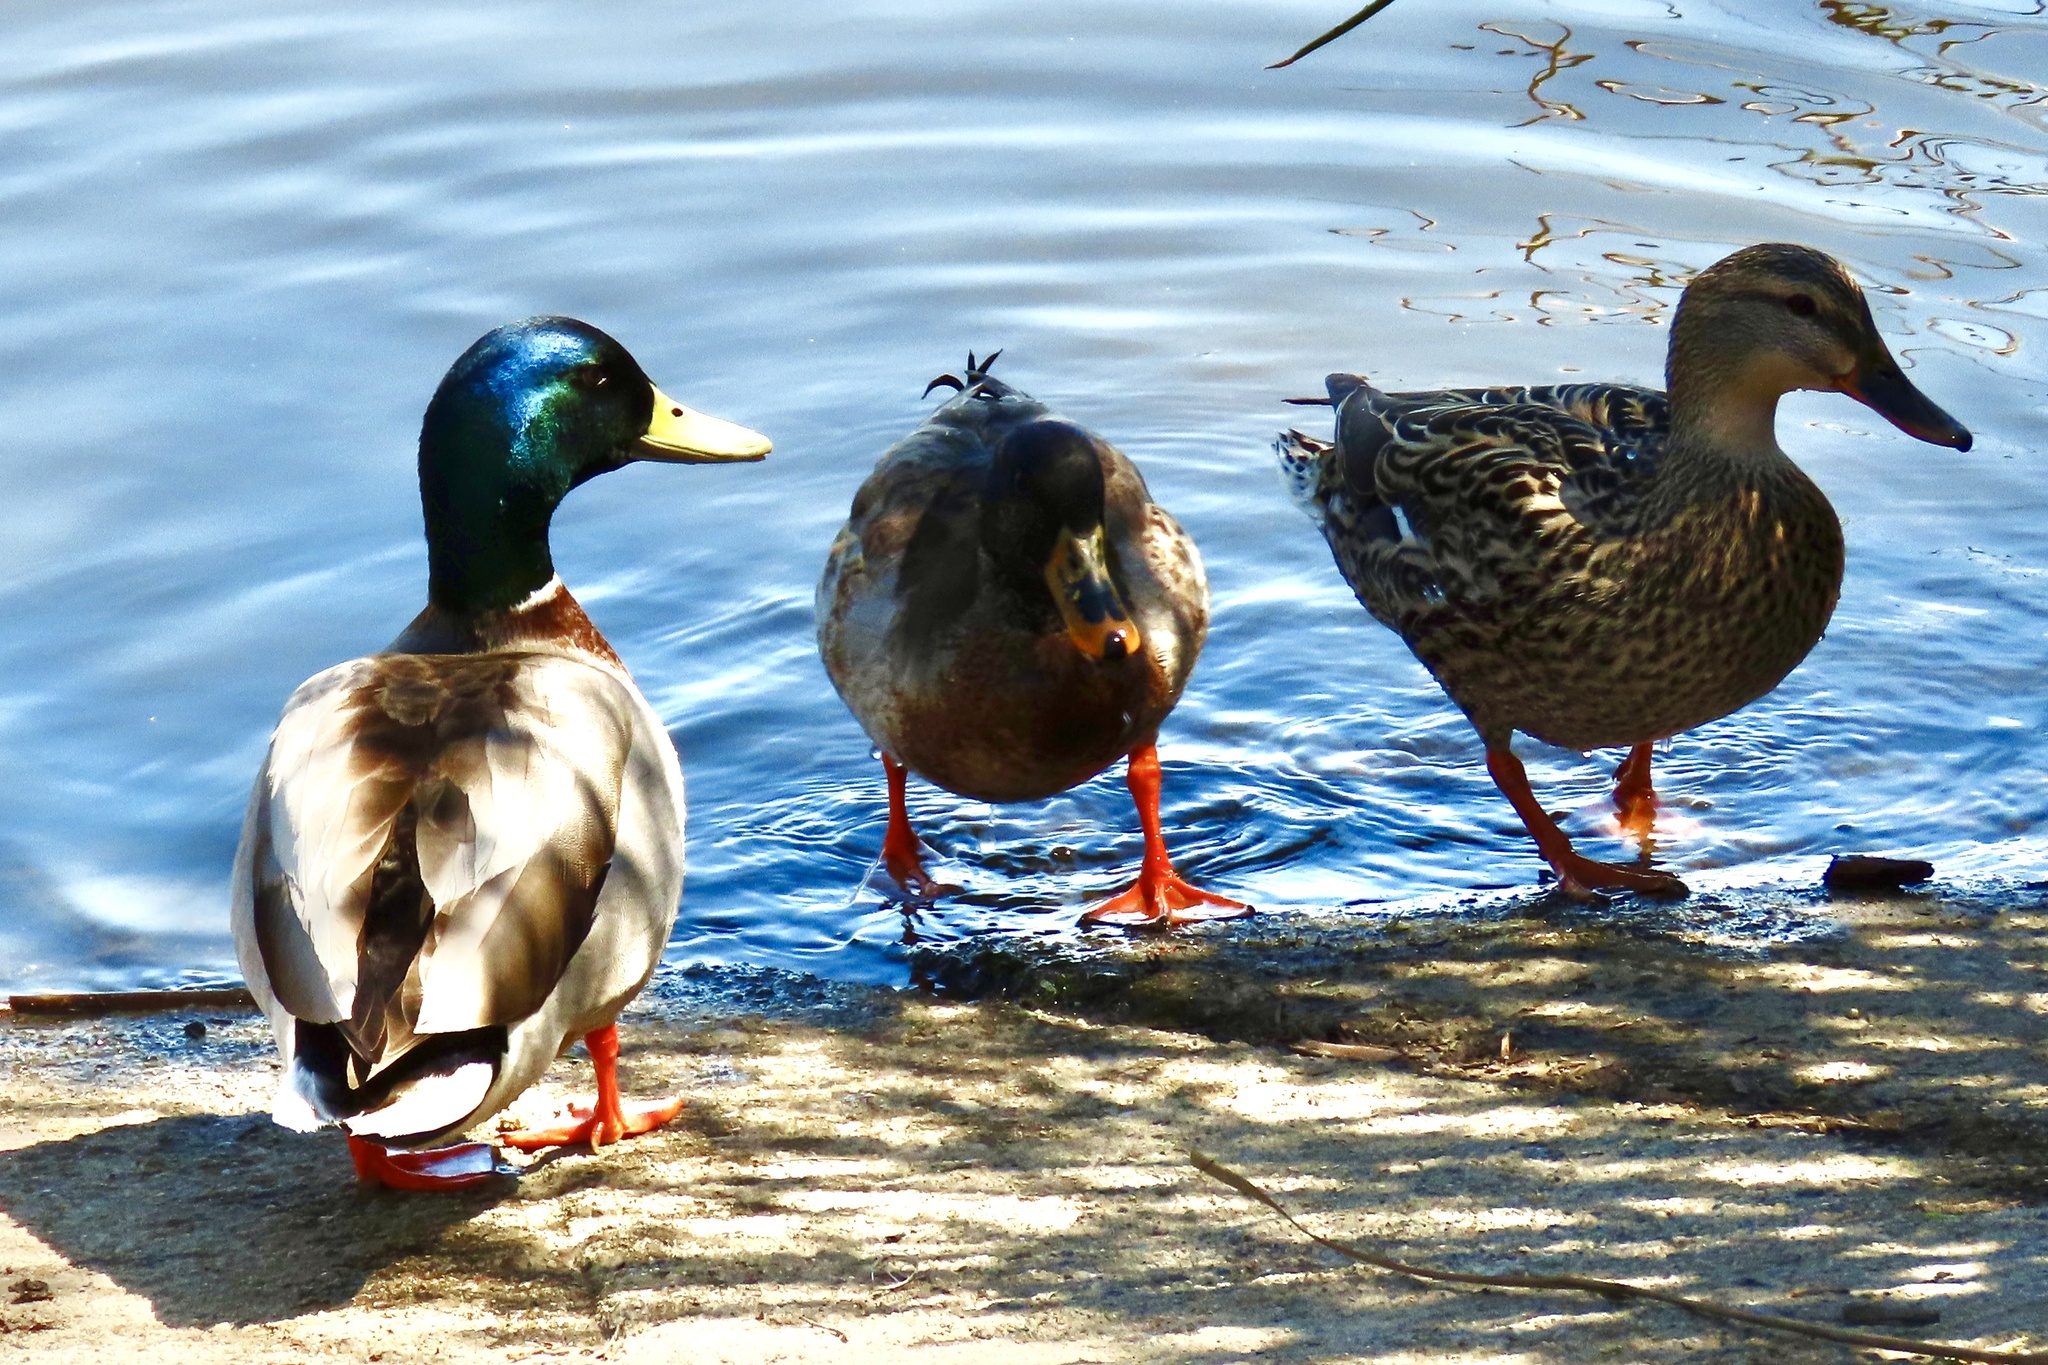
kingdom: Animalia
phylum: Chordata
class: Aves
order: Anseriformes
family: Anatidae
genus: Anas
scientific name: Anas platyrhynchos
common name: Mallard
